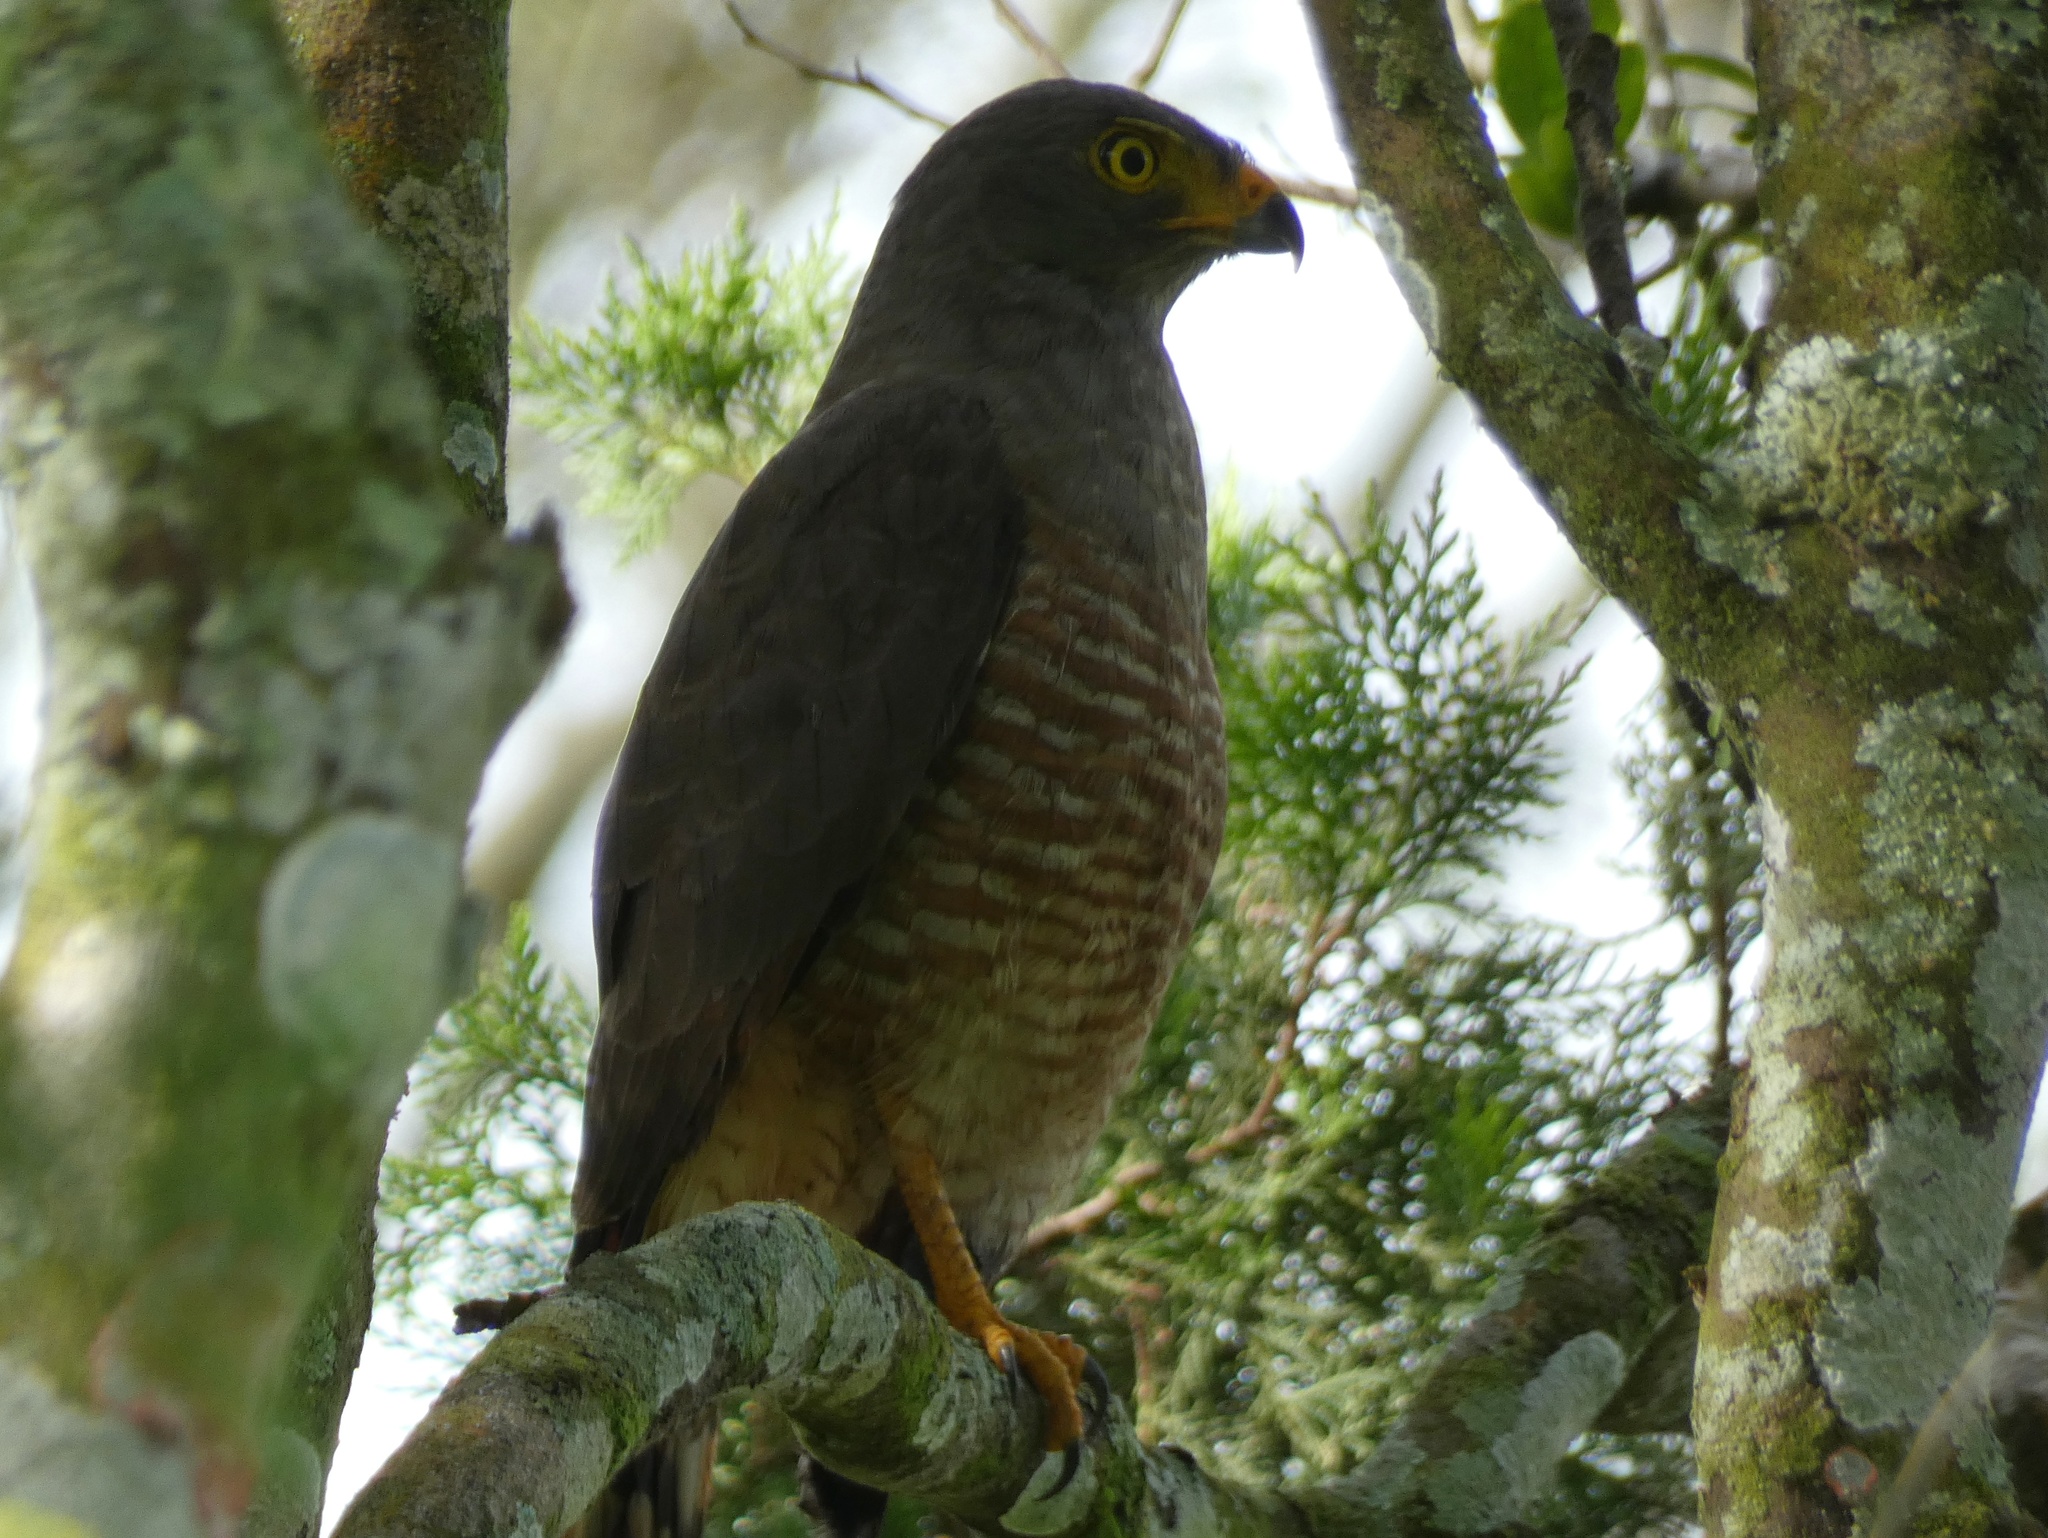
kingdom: Animalia
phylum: Chordata
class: Aves
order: Accipitriformes
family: Accipitridae
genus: Rupornis
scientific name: Rupornis magnirostris
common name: Roadside hawk
